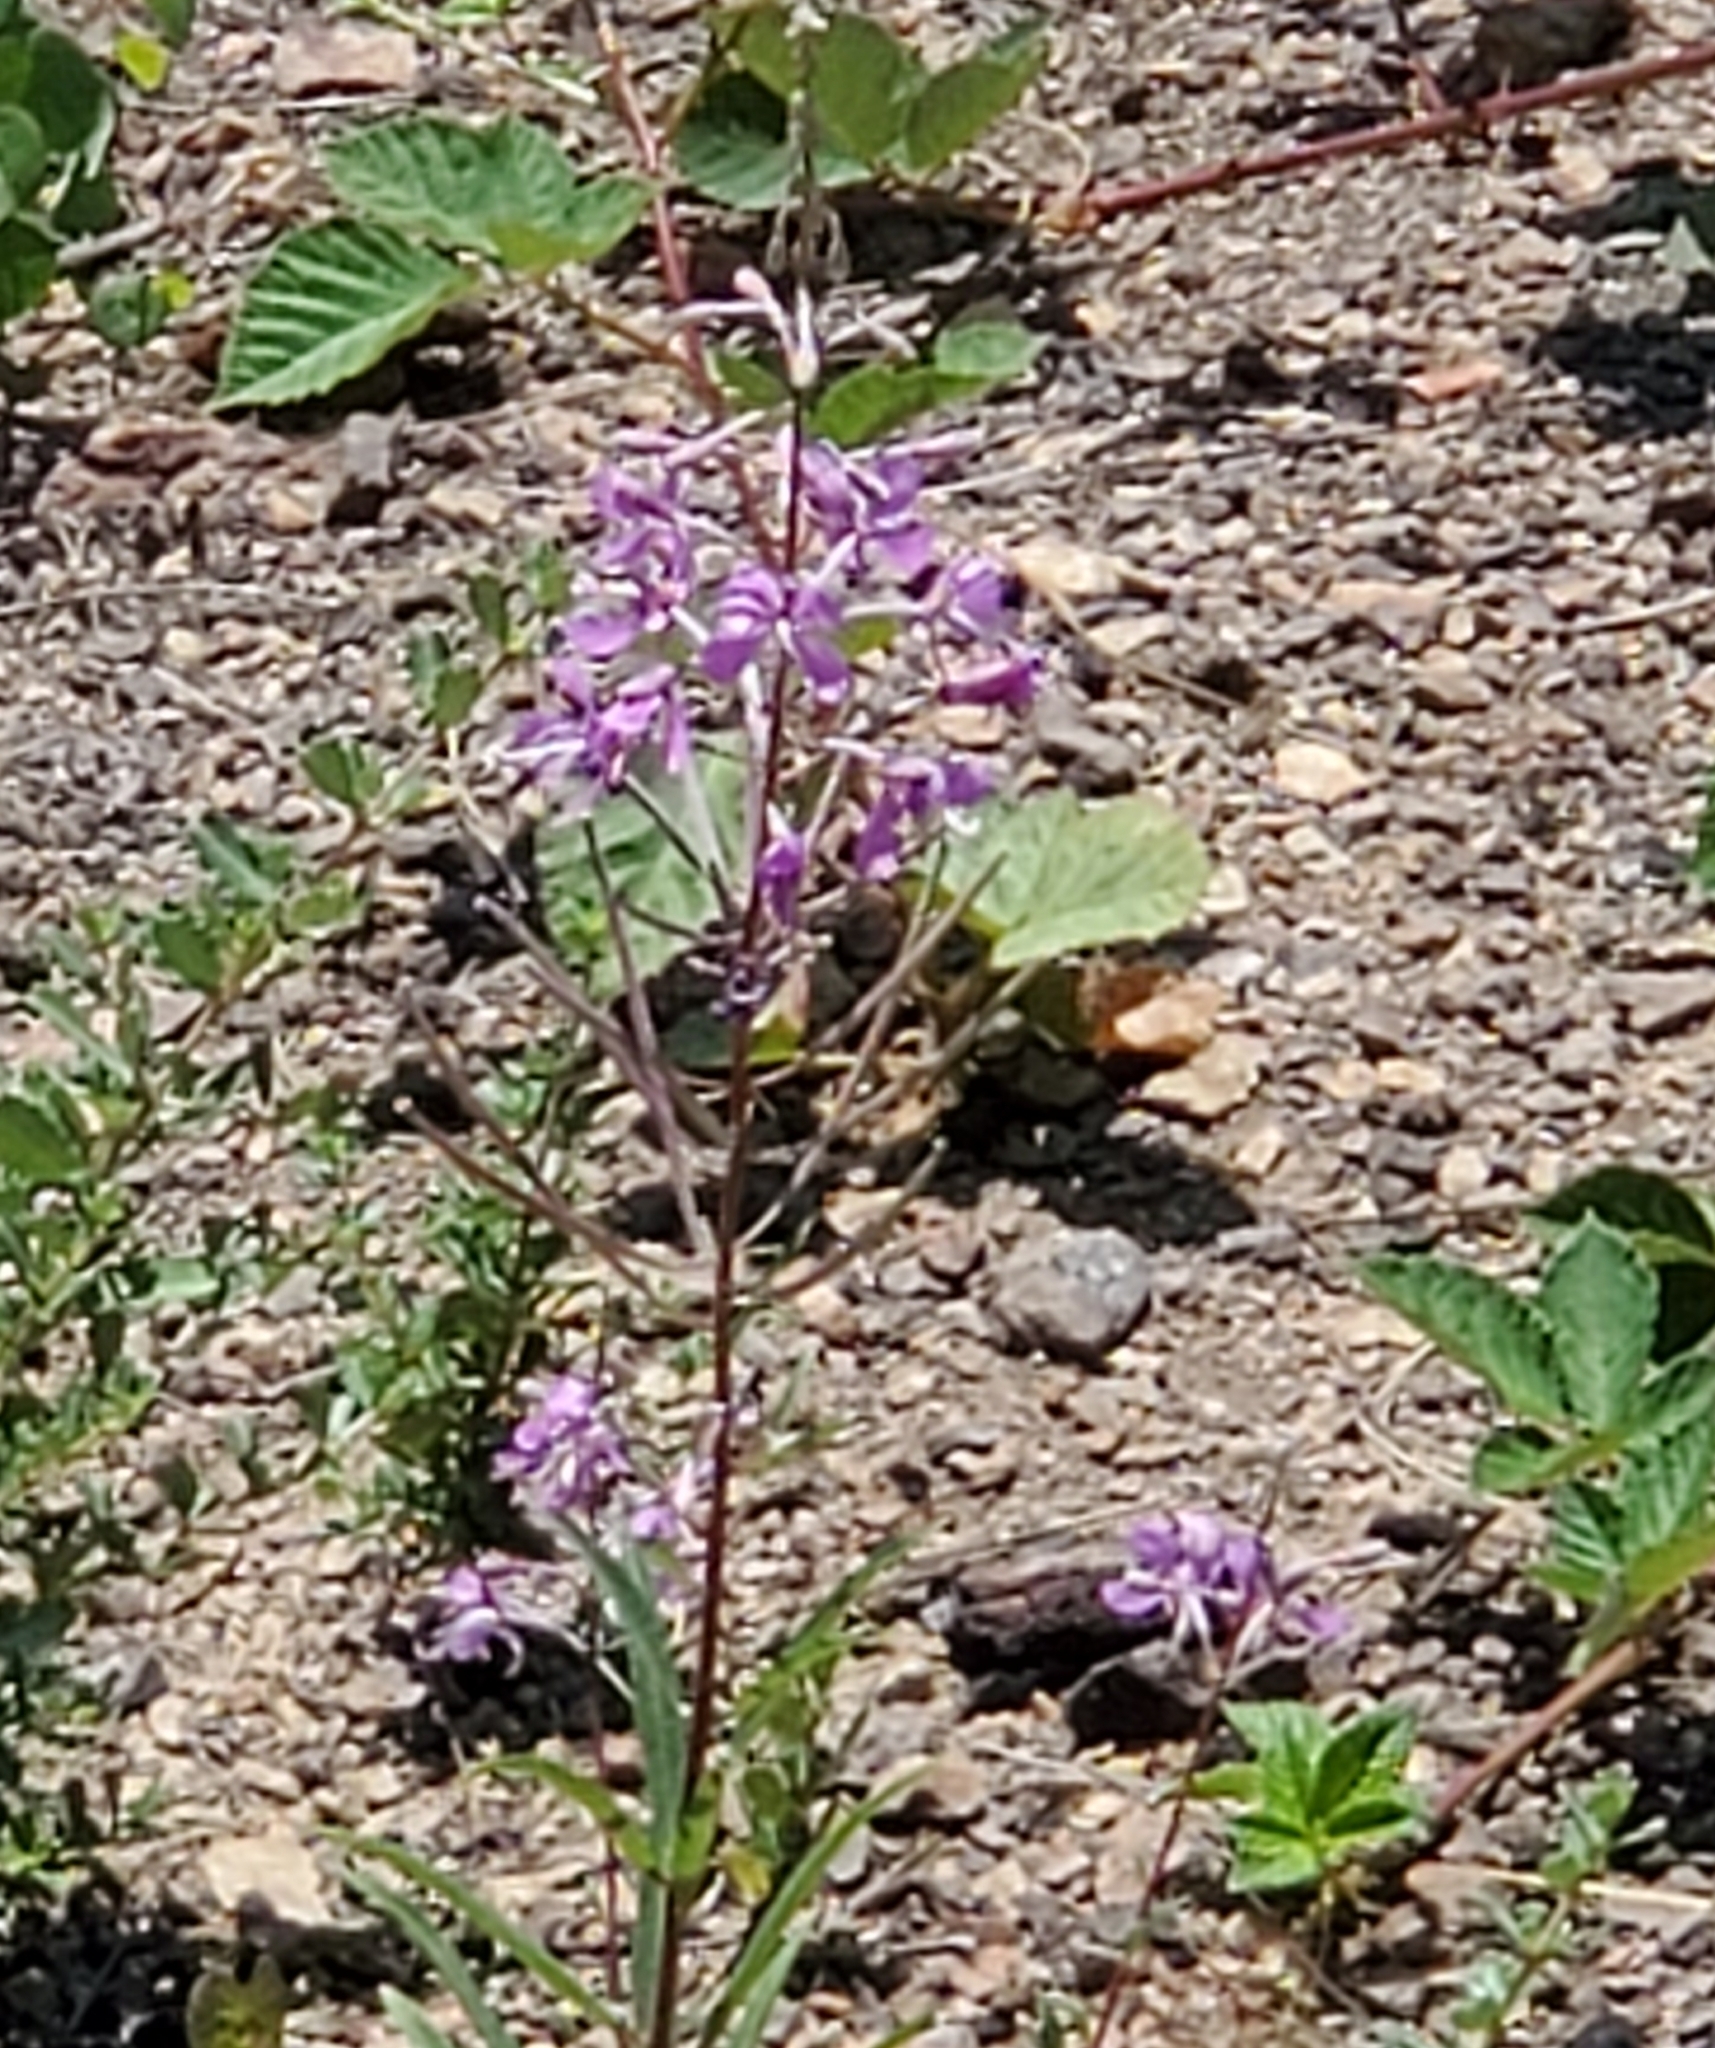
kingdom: Plantae
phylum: Tracheophyta
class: Magnoliopsida
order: Myrtales
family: Onagraceae
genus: Chamaenerion
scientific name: Chamaenerion angustifolium
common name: Fireweed
